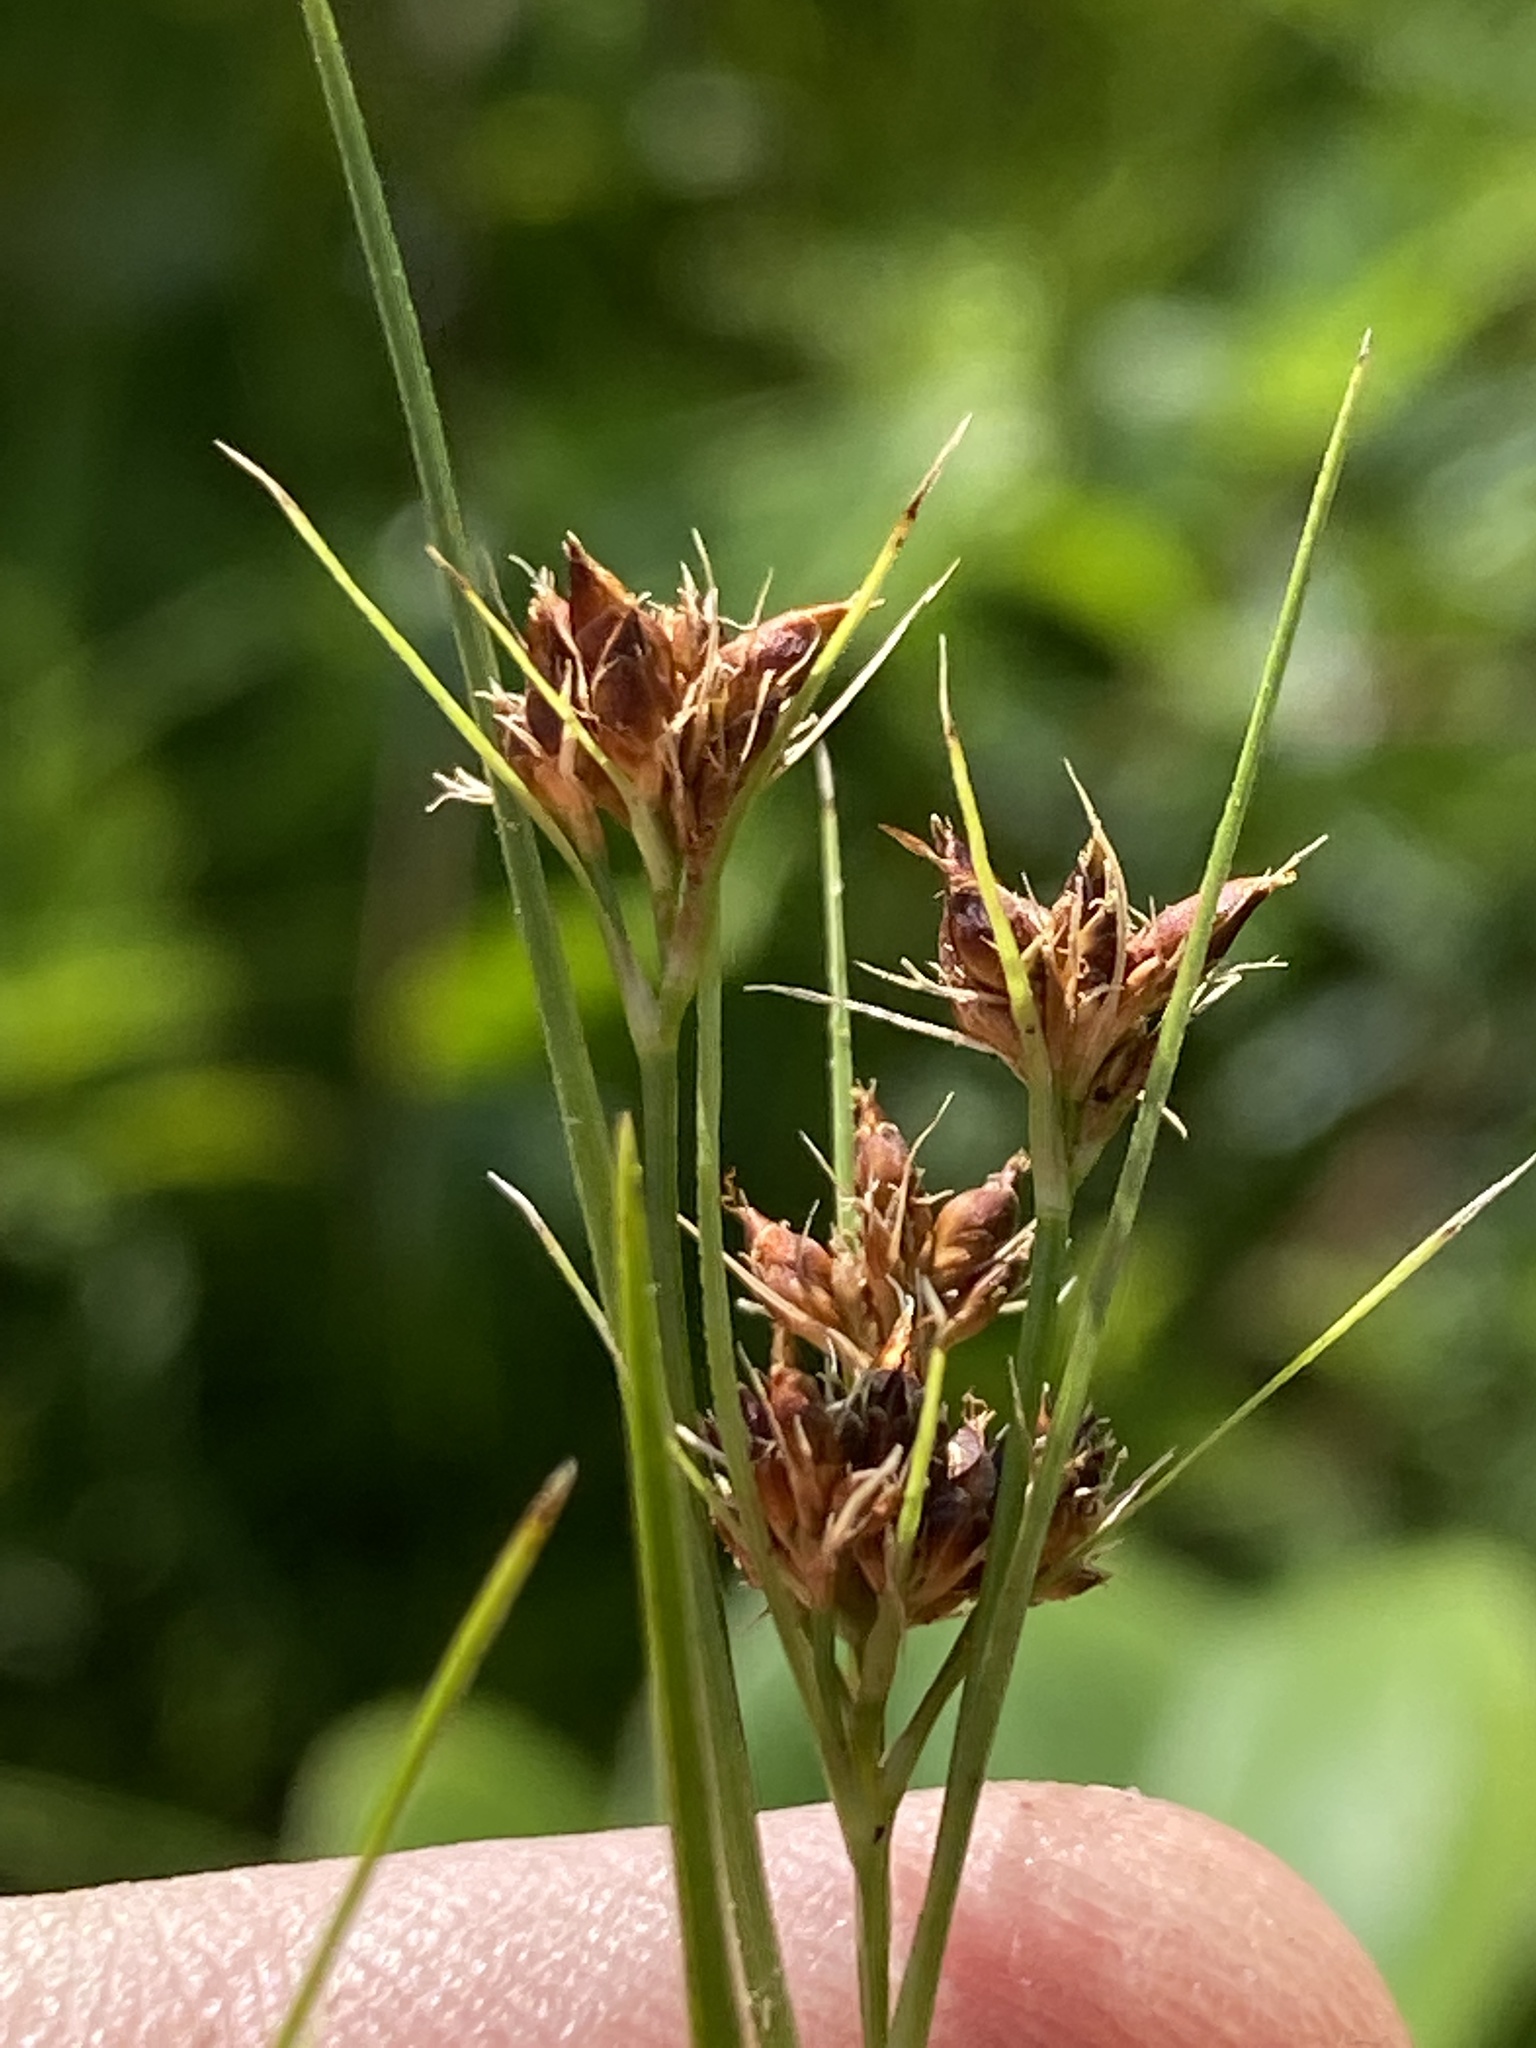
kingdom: Plantae
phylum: Tracheophyta
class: Liliopsida
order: Poales
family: Cyperaceae
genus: Rhynchospora
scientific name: Rhynchospora capitellata
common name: Brownish beaksedge
